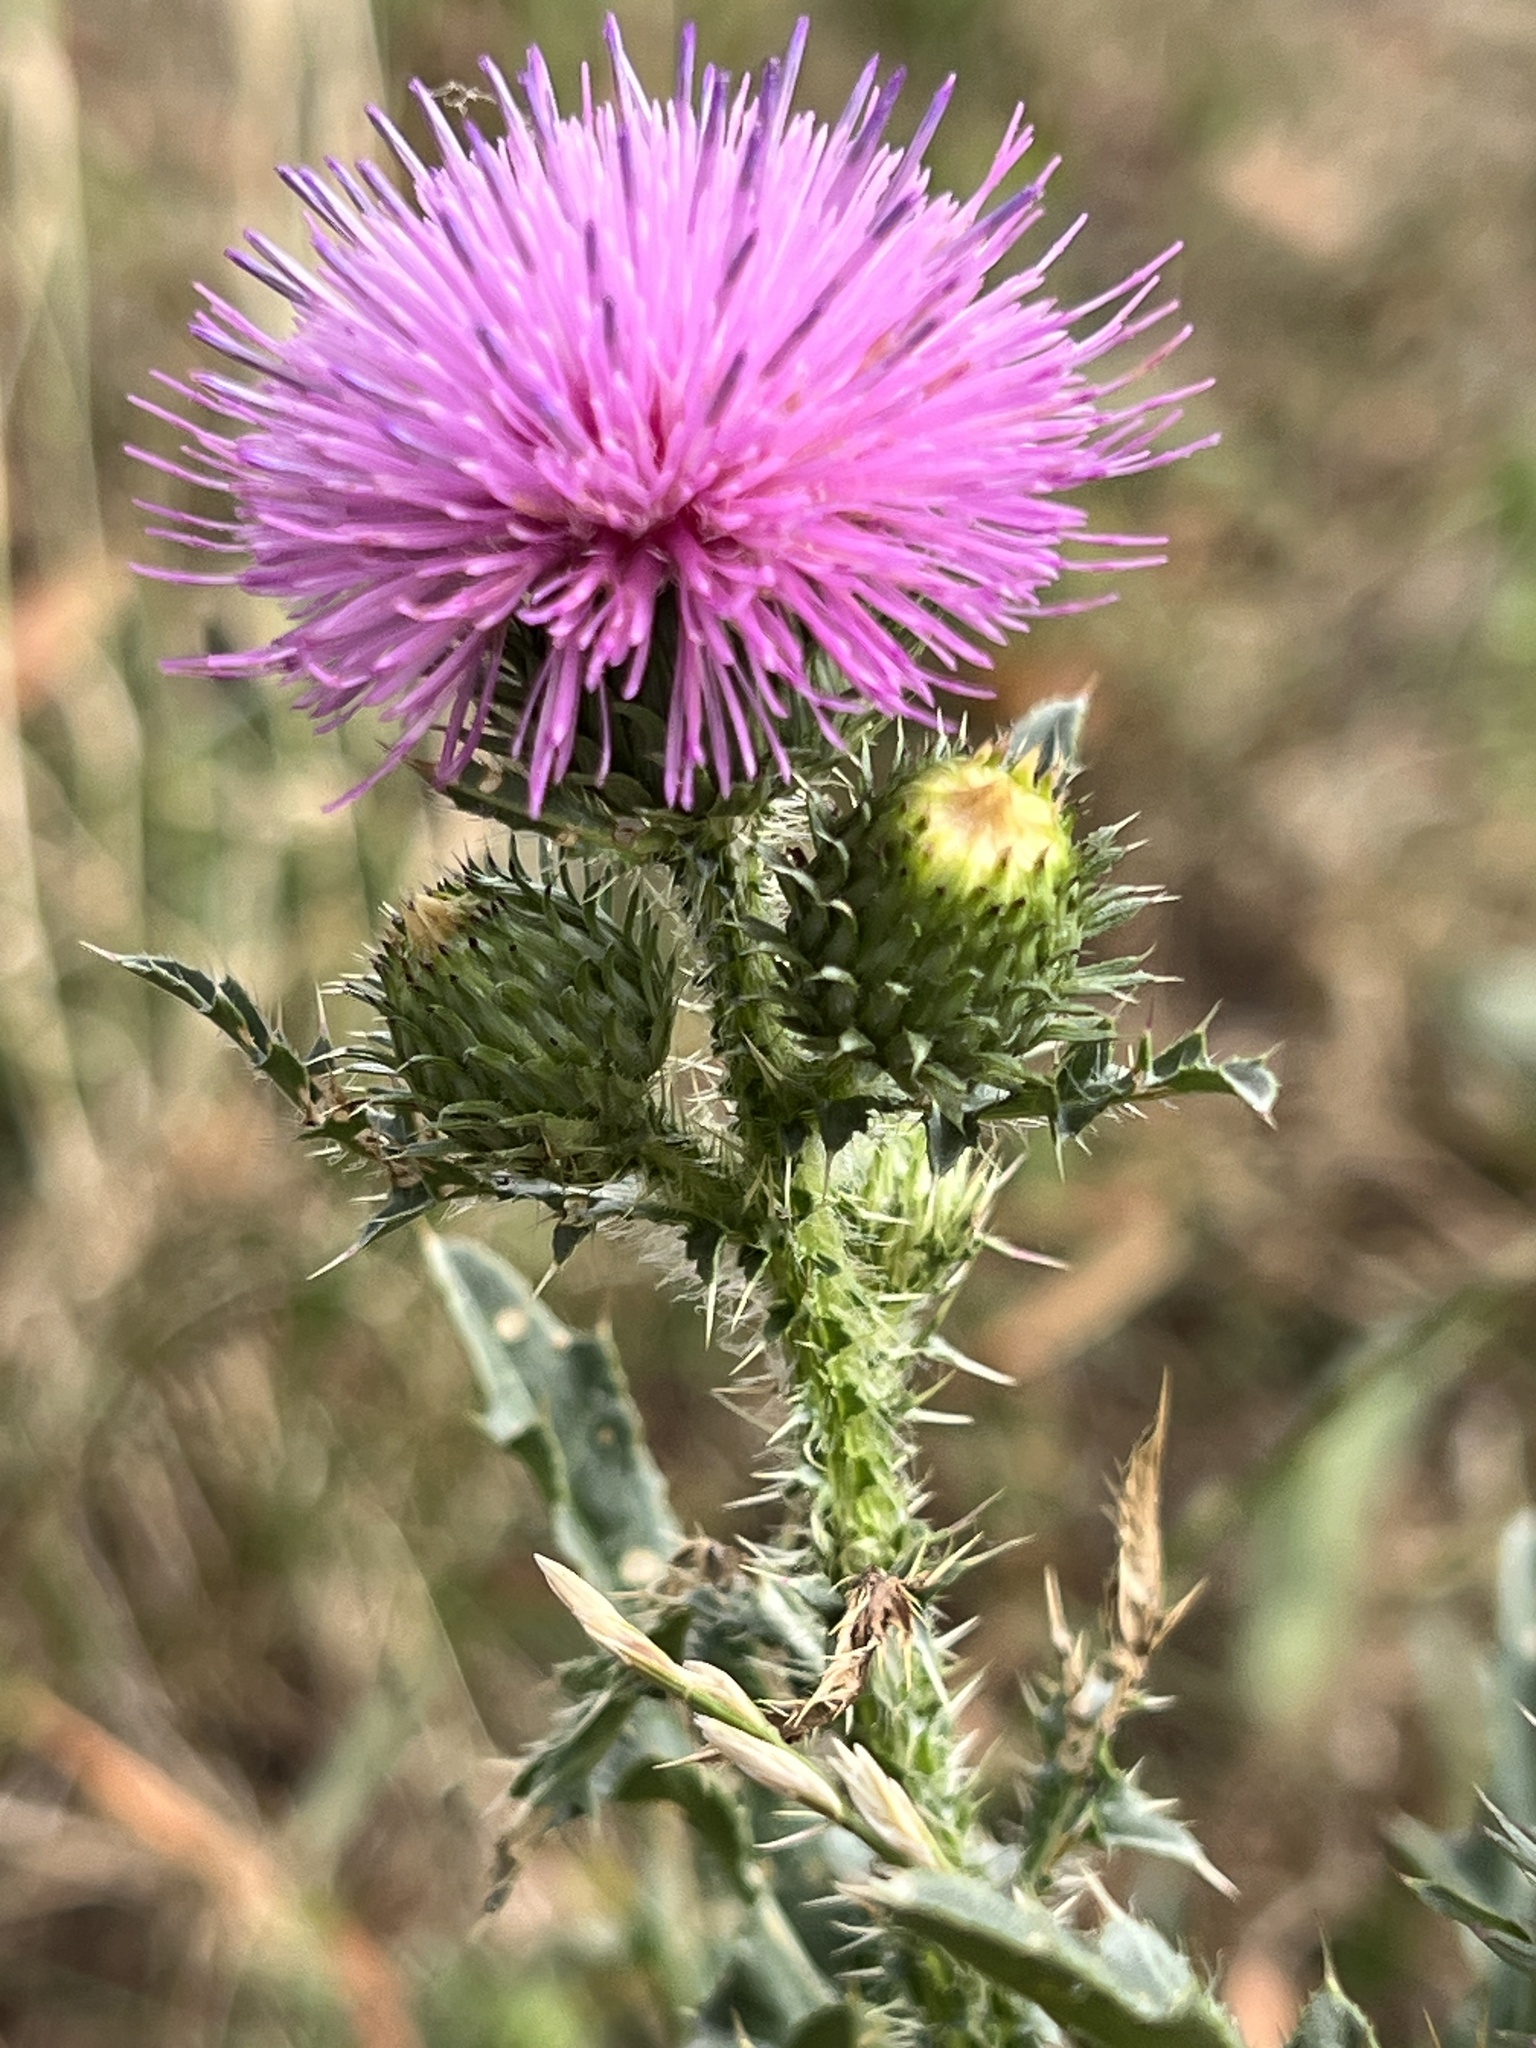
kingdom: Plantae
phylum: Tracheophyta
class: Magnoliopsida
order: Asterales
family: Asteraceae
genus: Carduus
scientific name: Carduus acanthoides
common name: Plumeless thistle
